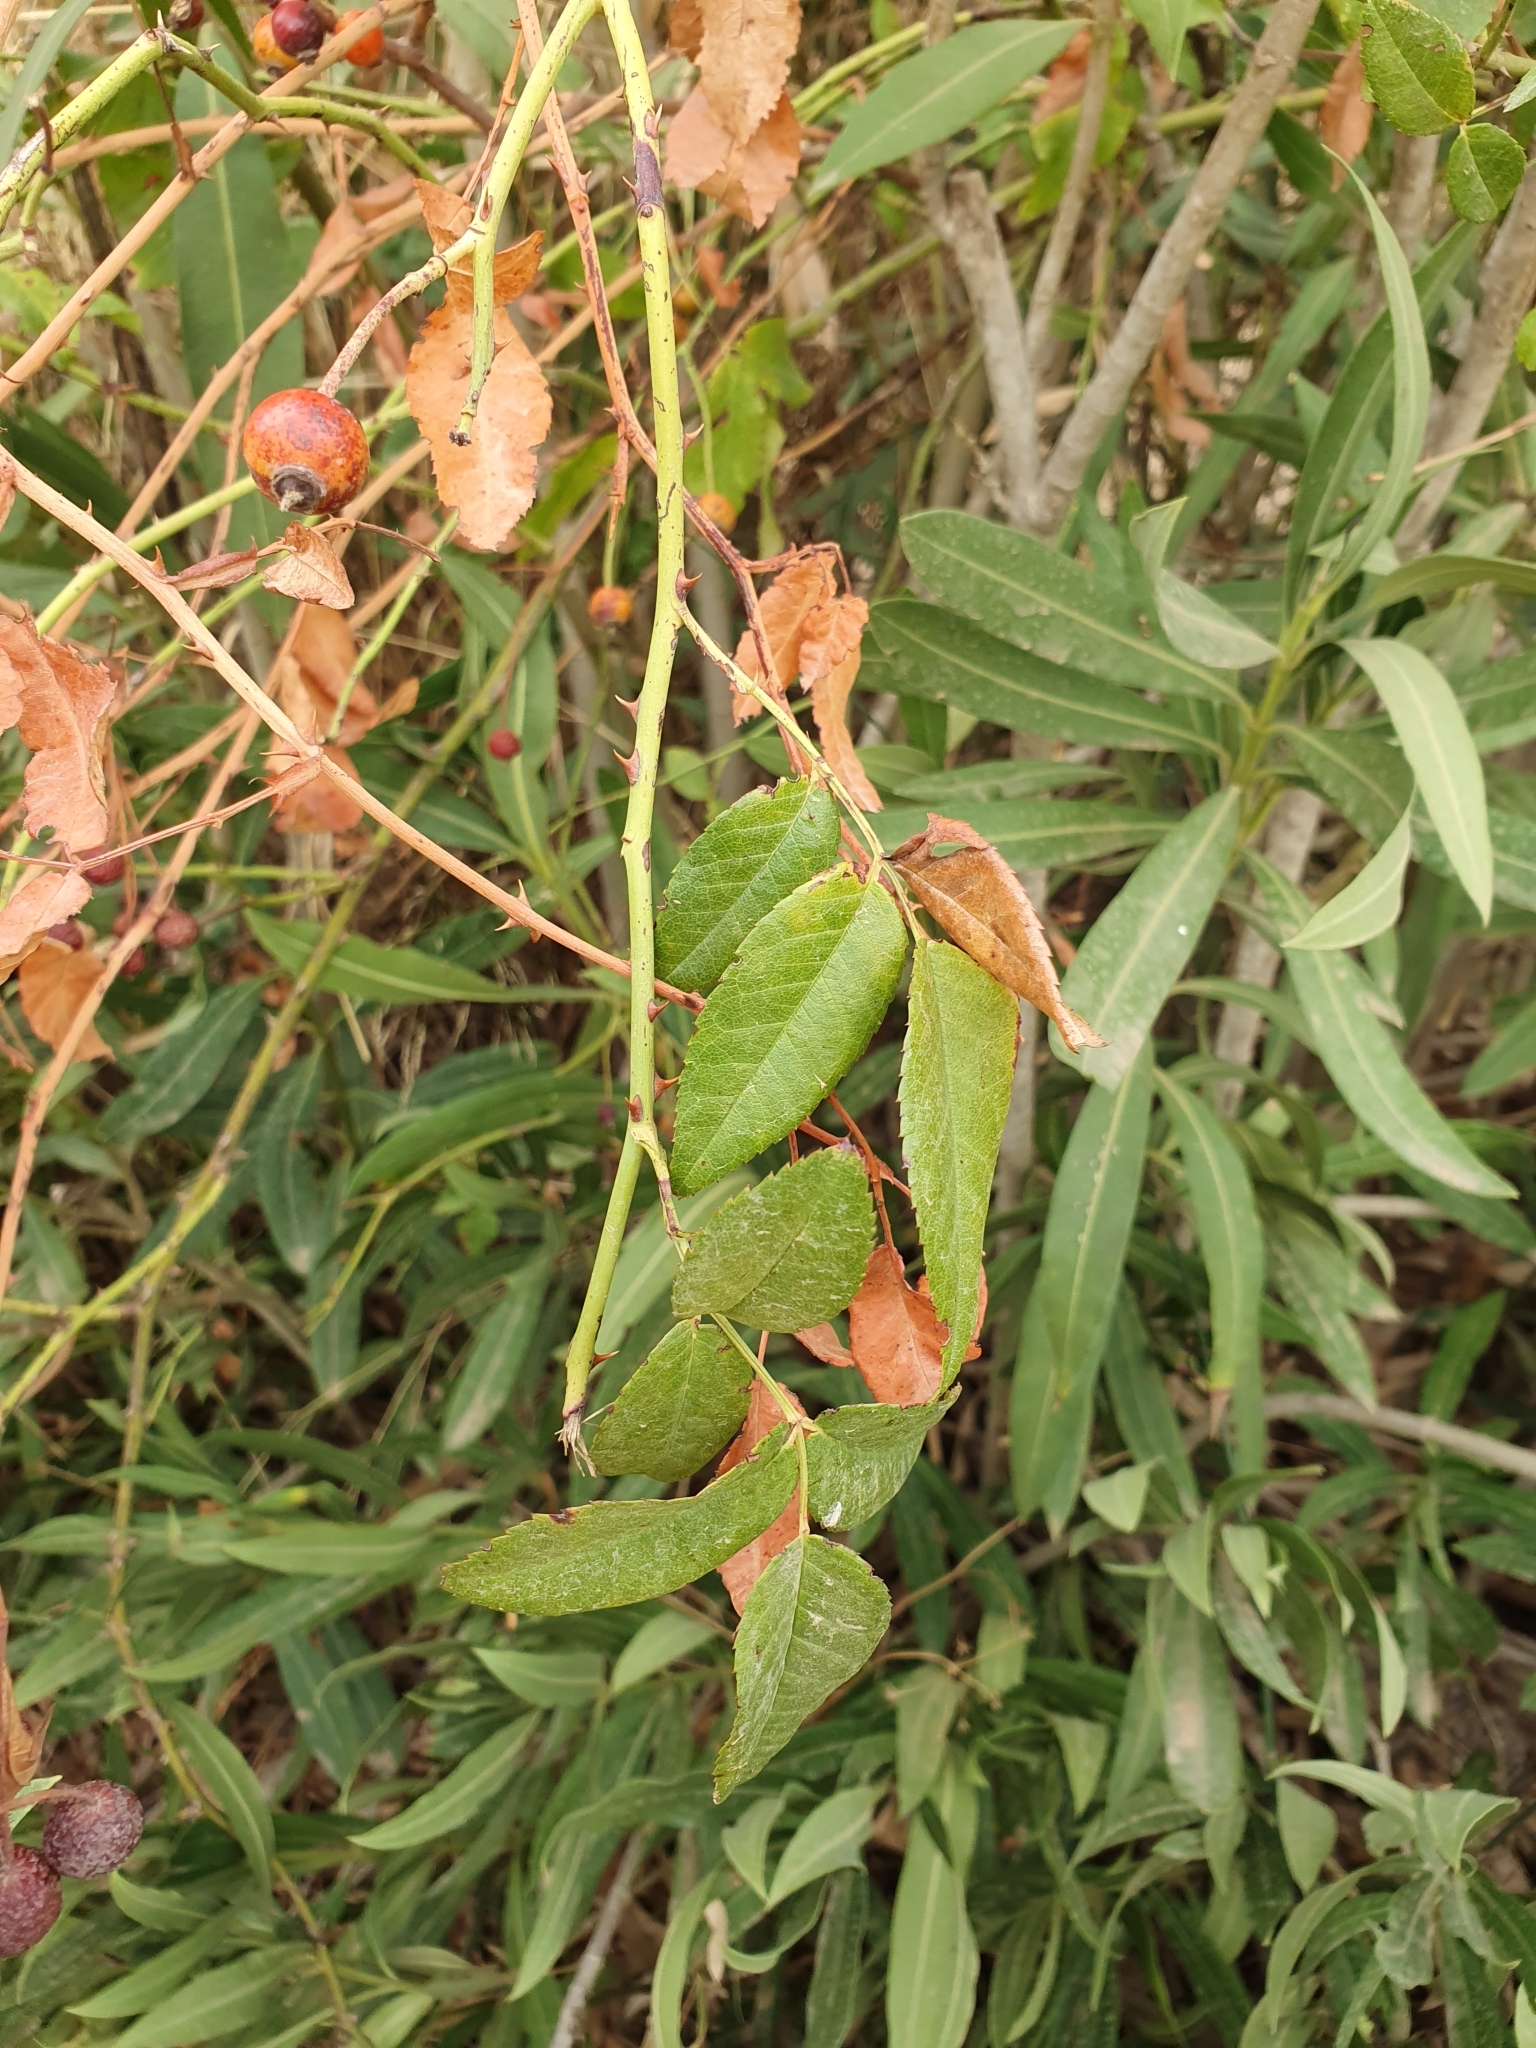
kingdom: Plantae
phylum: Tracheophyta
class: Magnoliopsida
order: Rosales
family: Rosaceae
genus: Rosa
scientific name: Rosa sempervirens
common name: Evergreen rose
